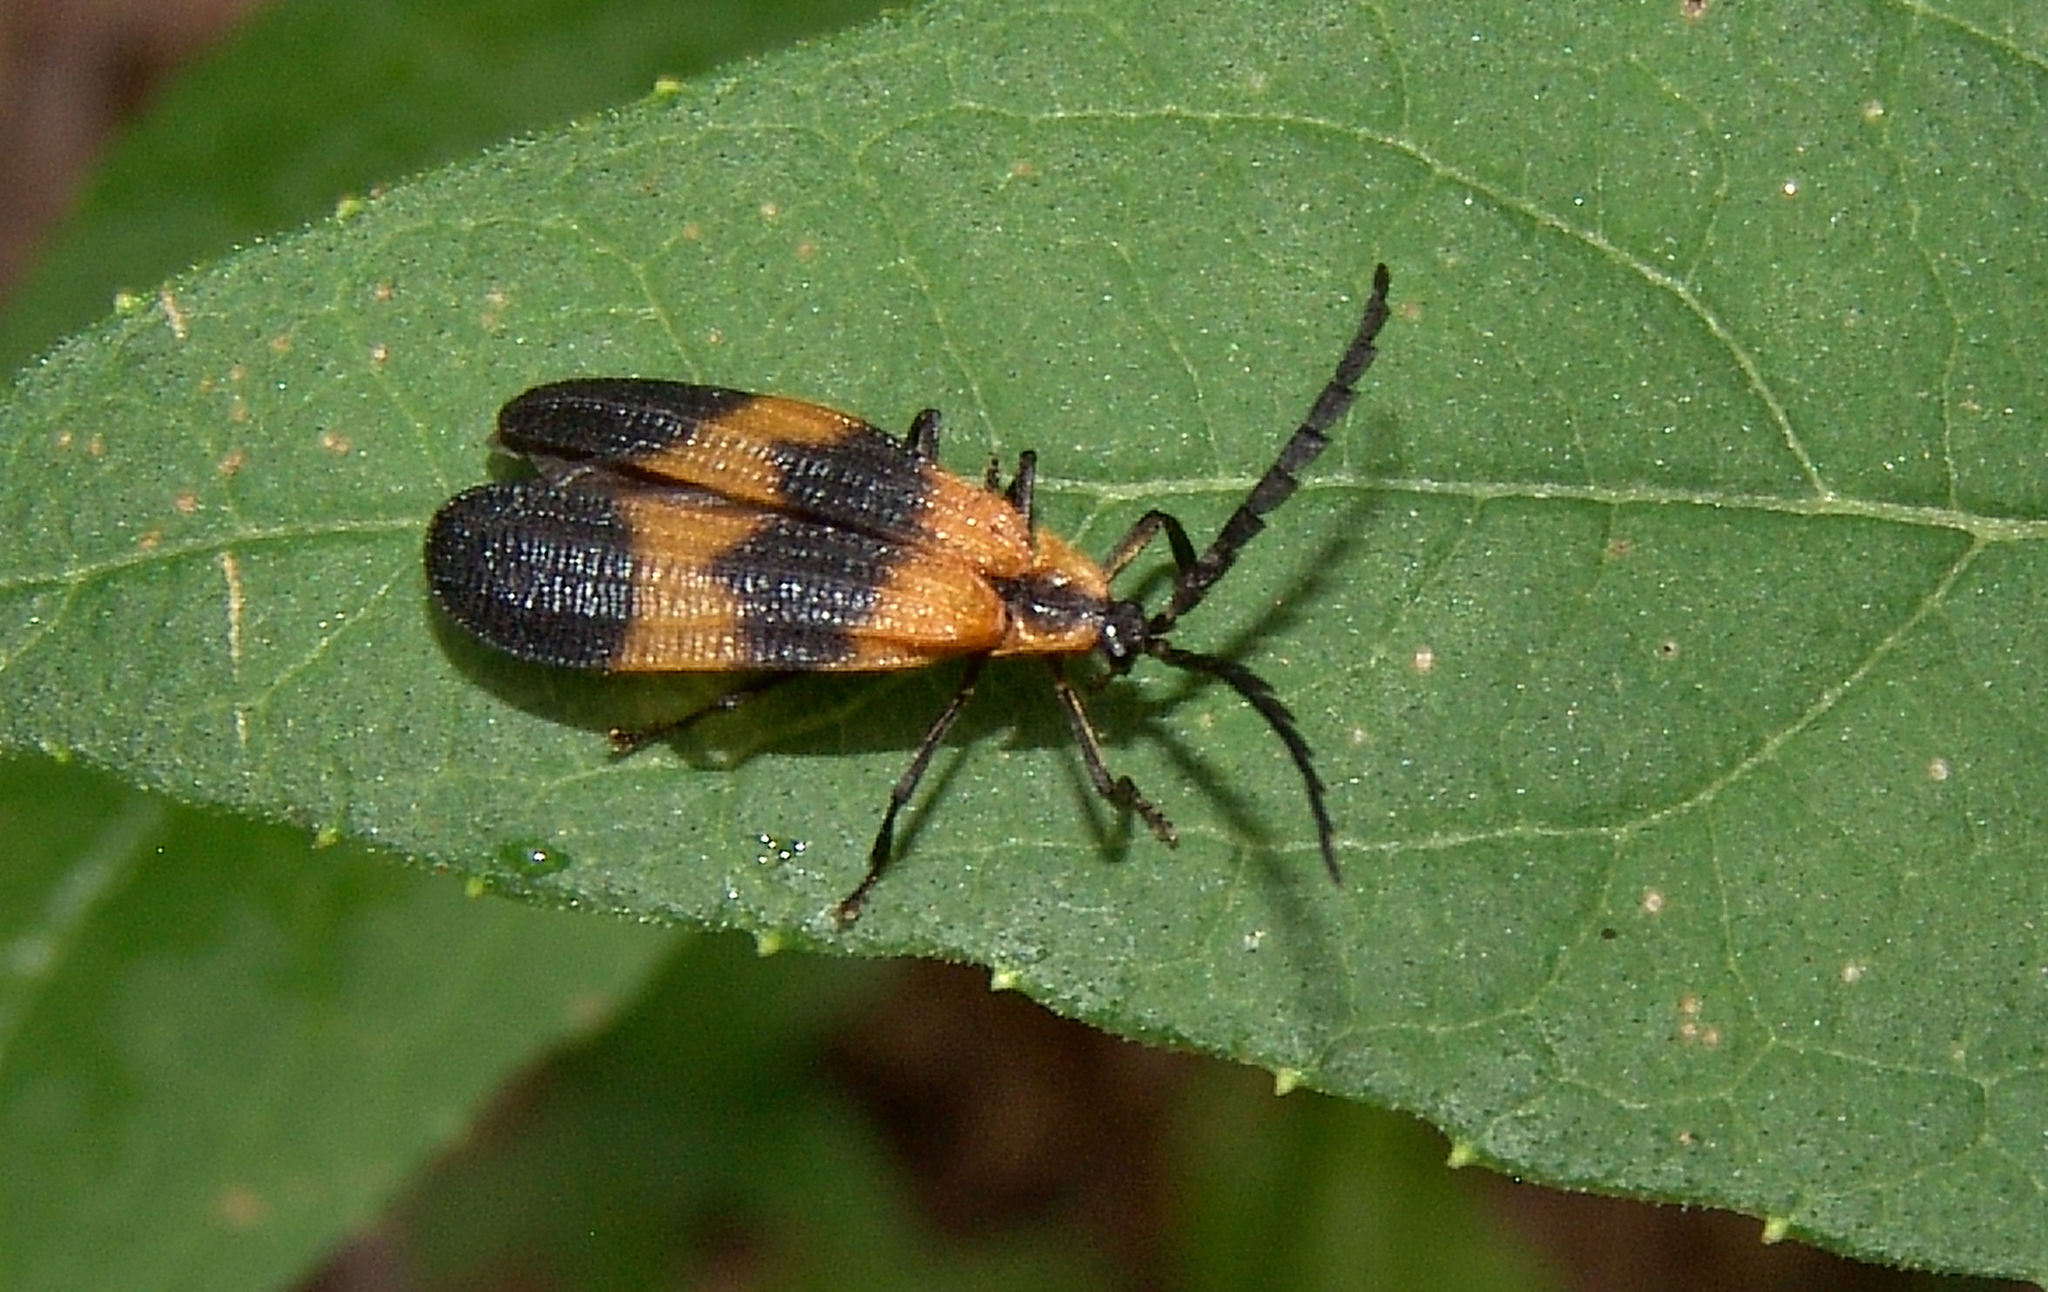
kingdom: Animalia
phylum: Arthropoda
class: Insecta
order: Coleoptera
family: Lycidae
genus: Calopteron
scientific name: Calopteron reticulatum
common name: Banded net-winged beetle
